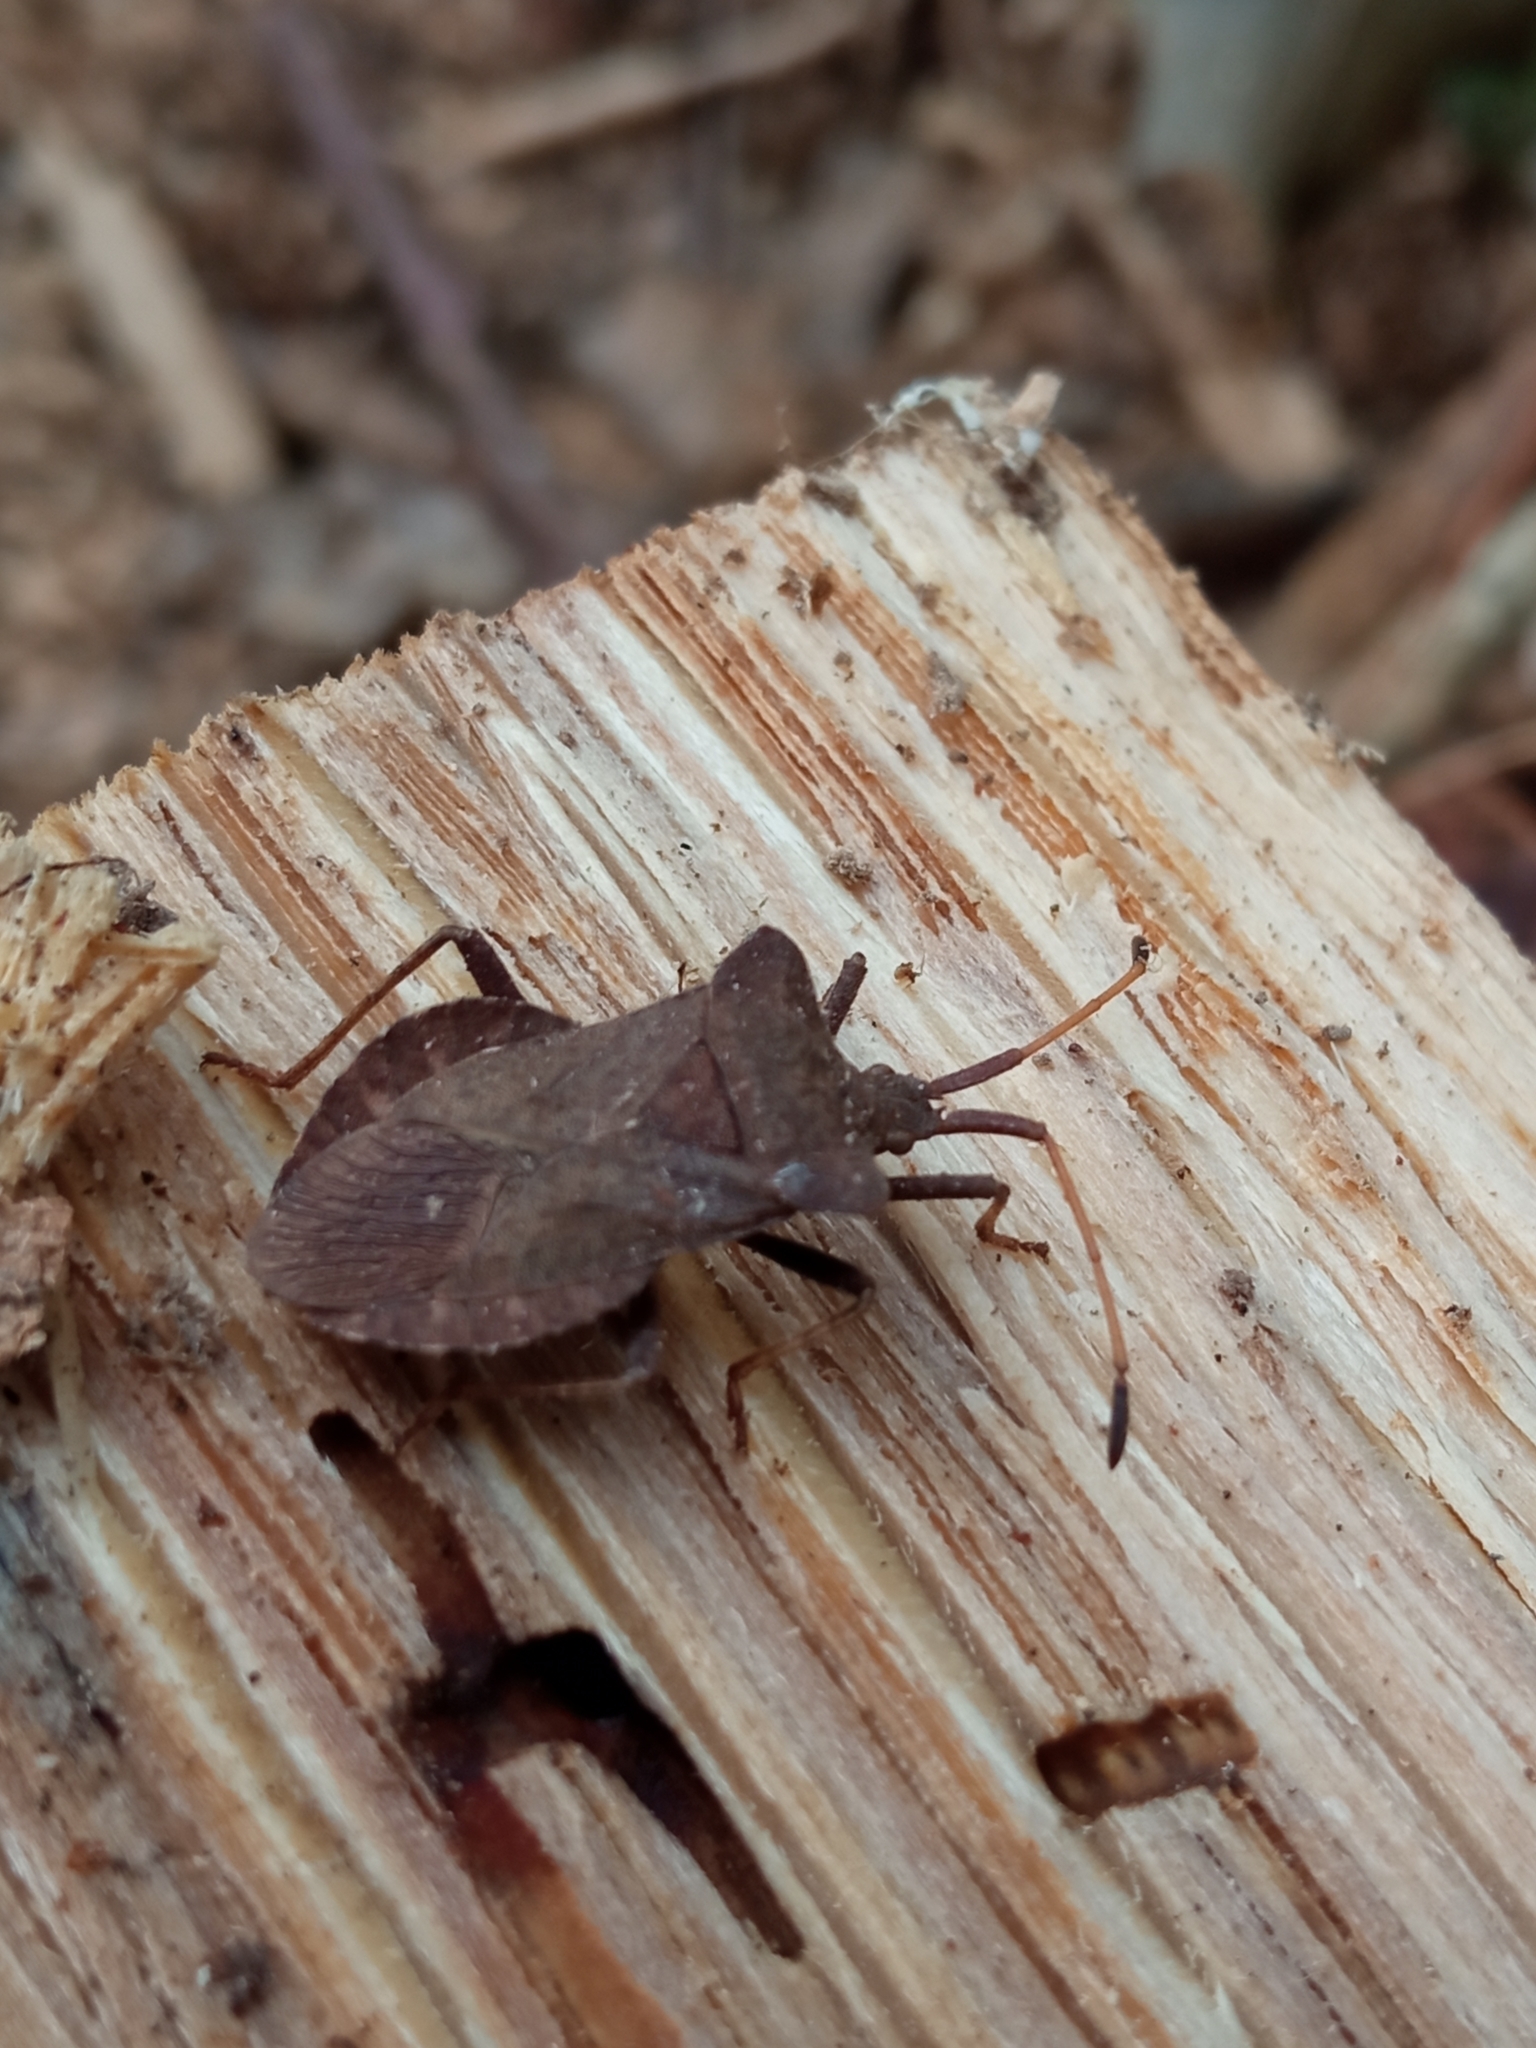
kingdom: Animalia
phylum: Arthropoda
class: Insecta
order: Hemiptera
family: Coreidae
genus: Coreus
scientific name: Coreus marginatus
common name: Dock bug
